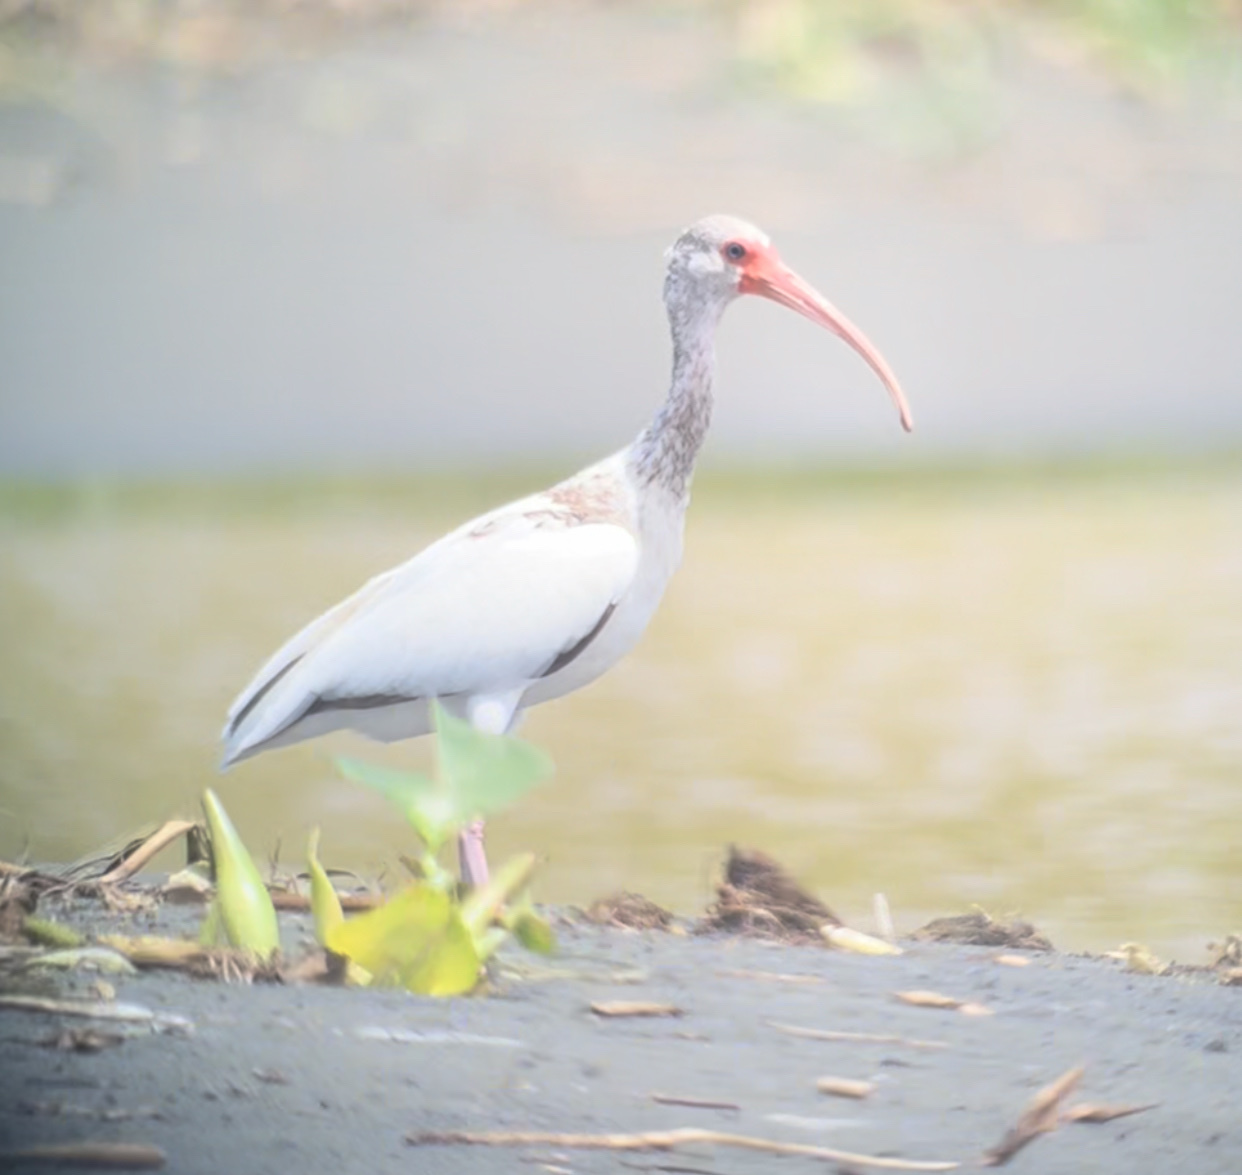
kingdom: Animalia
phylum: Chordata
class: Aves
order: Pelecaniformes
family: Threskiornithidae
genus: Eudocimus
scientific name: Eudocimus albus
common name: White ibis
